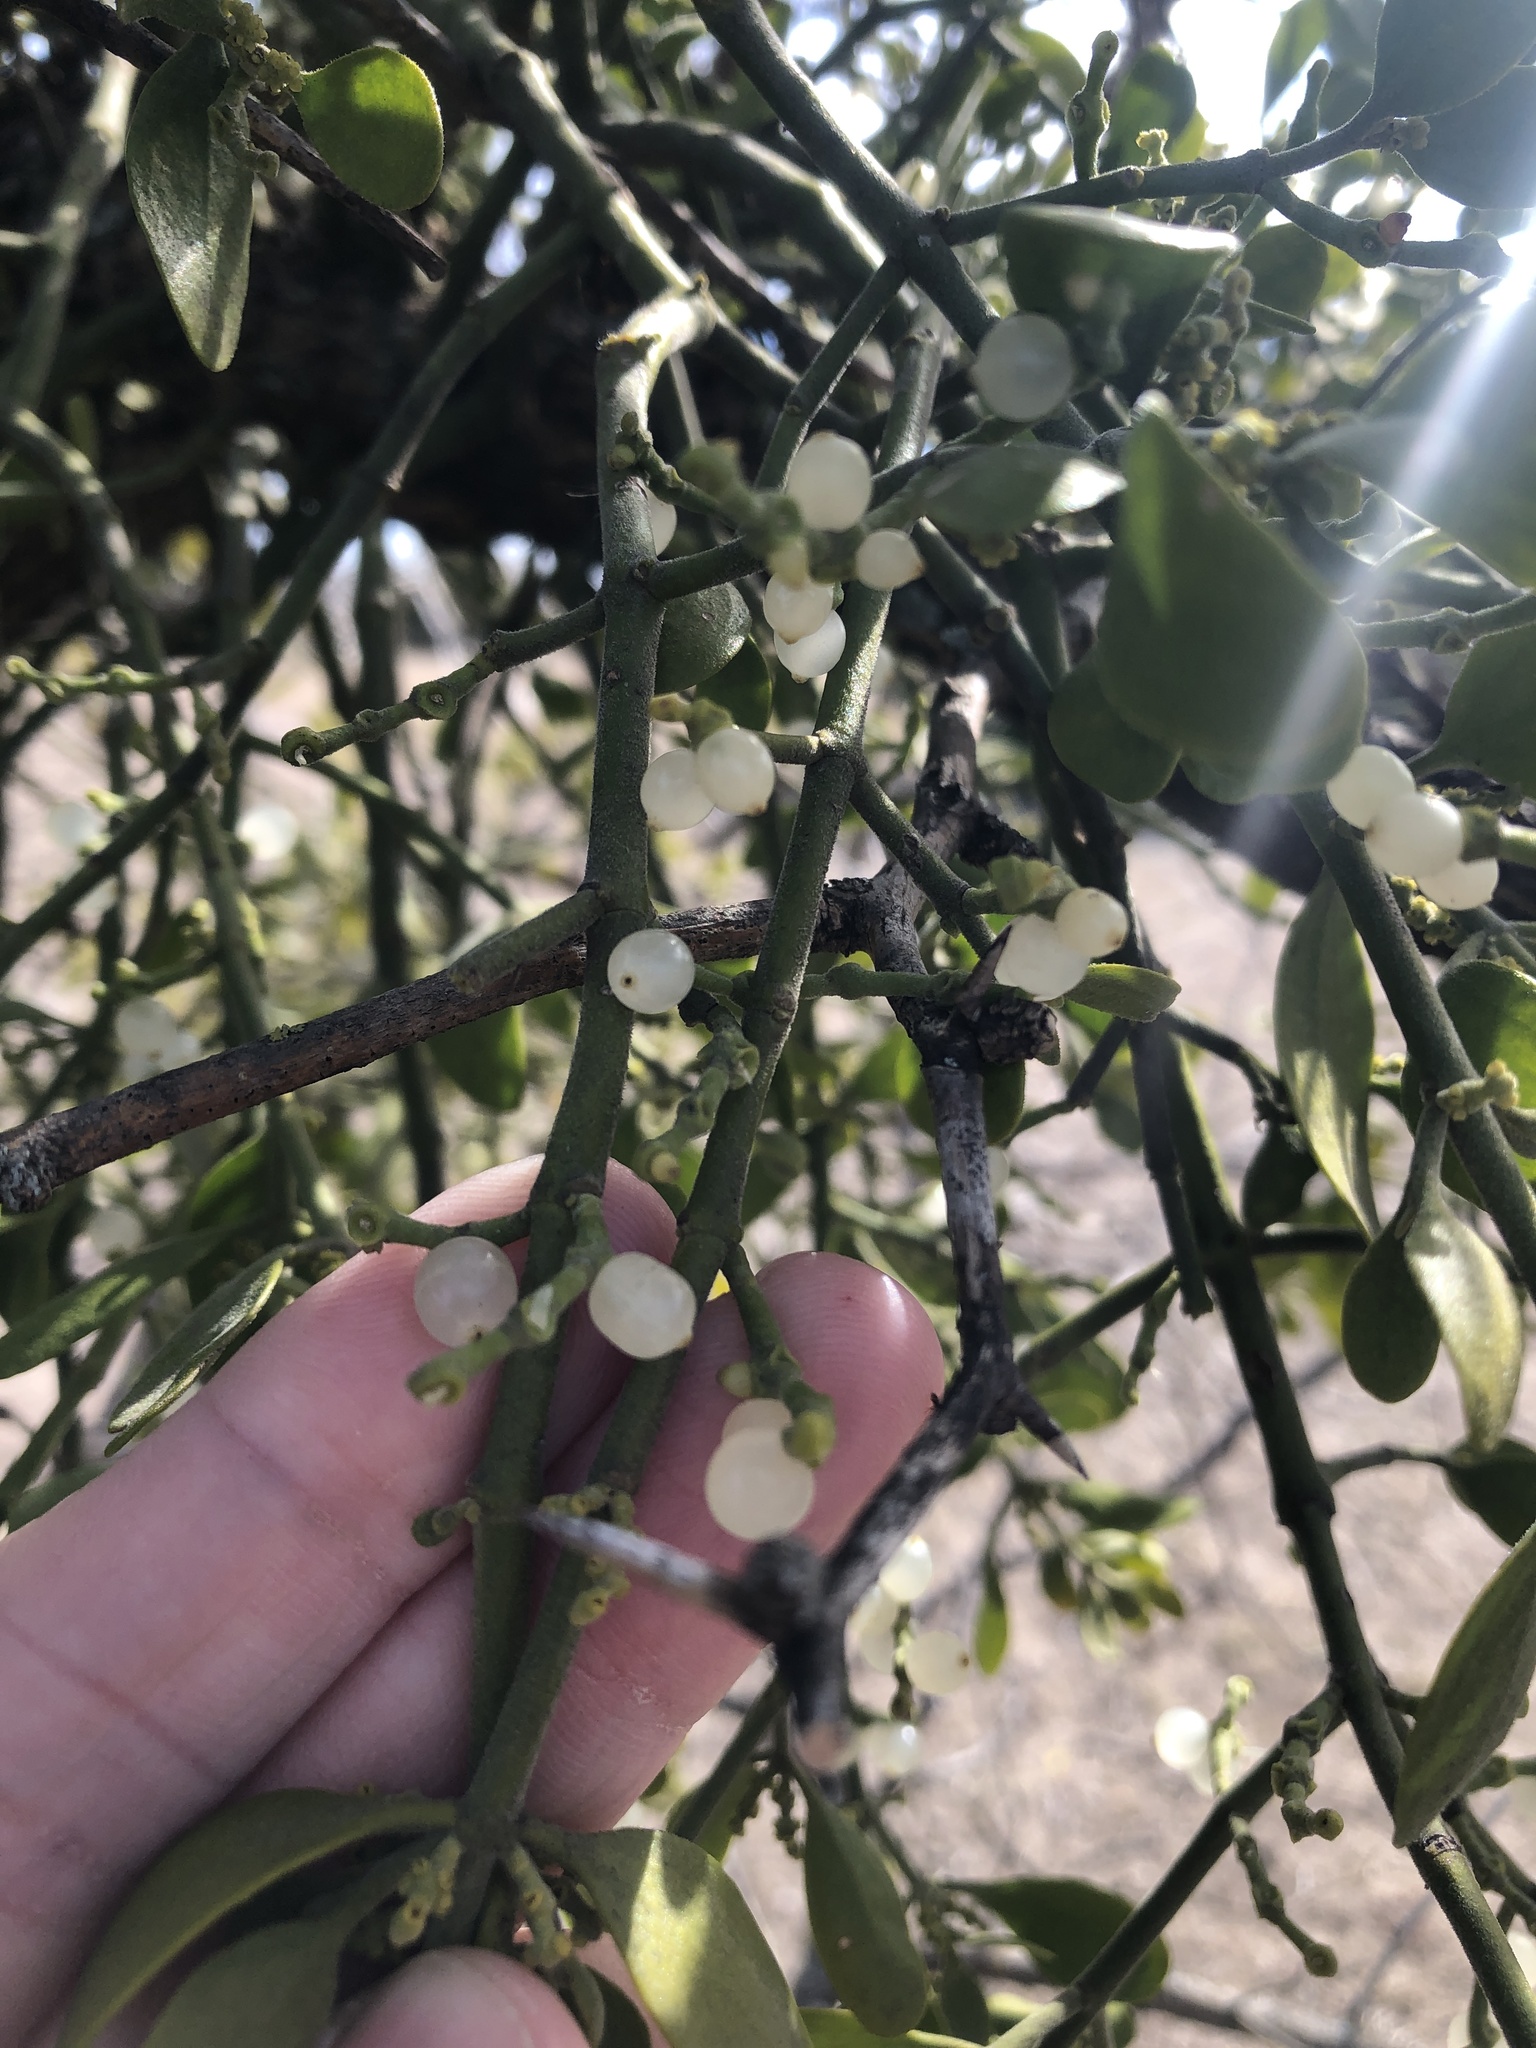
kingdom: Plantae
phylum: Tracheophyta
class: Magnoliopsida
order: Santalales
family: Viscaceae
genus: Phoradendron
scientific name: Phoradendron leucarpum
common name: Pacific mistletoe
